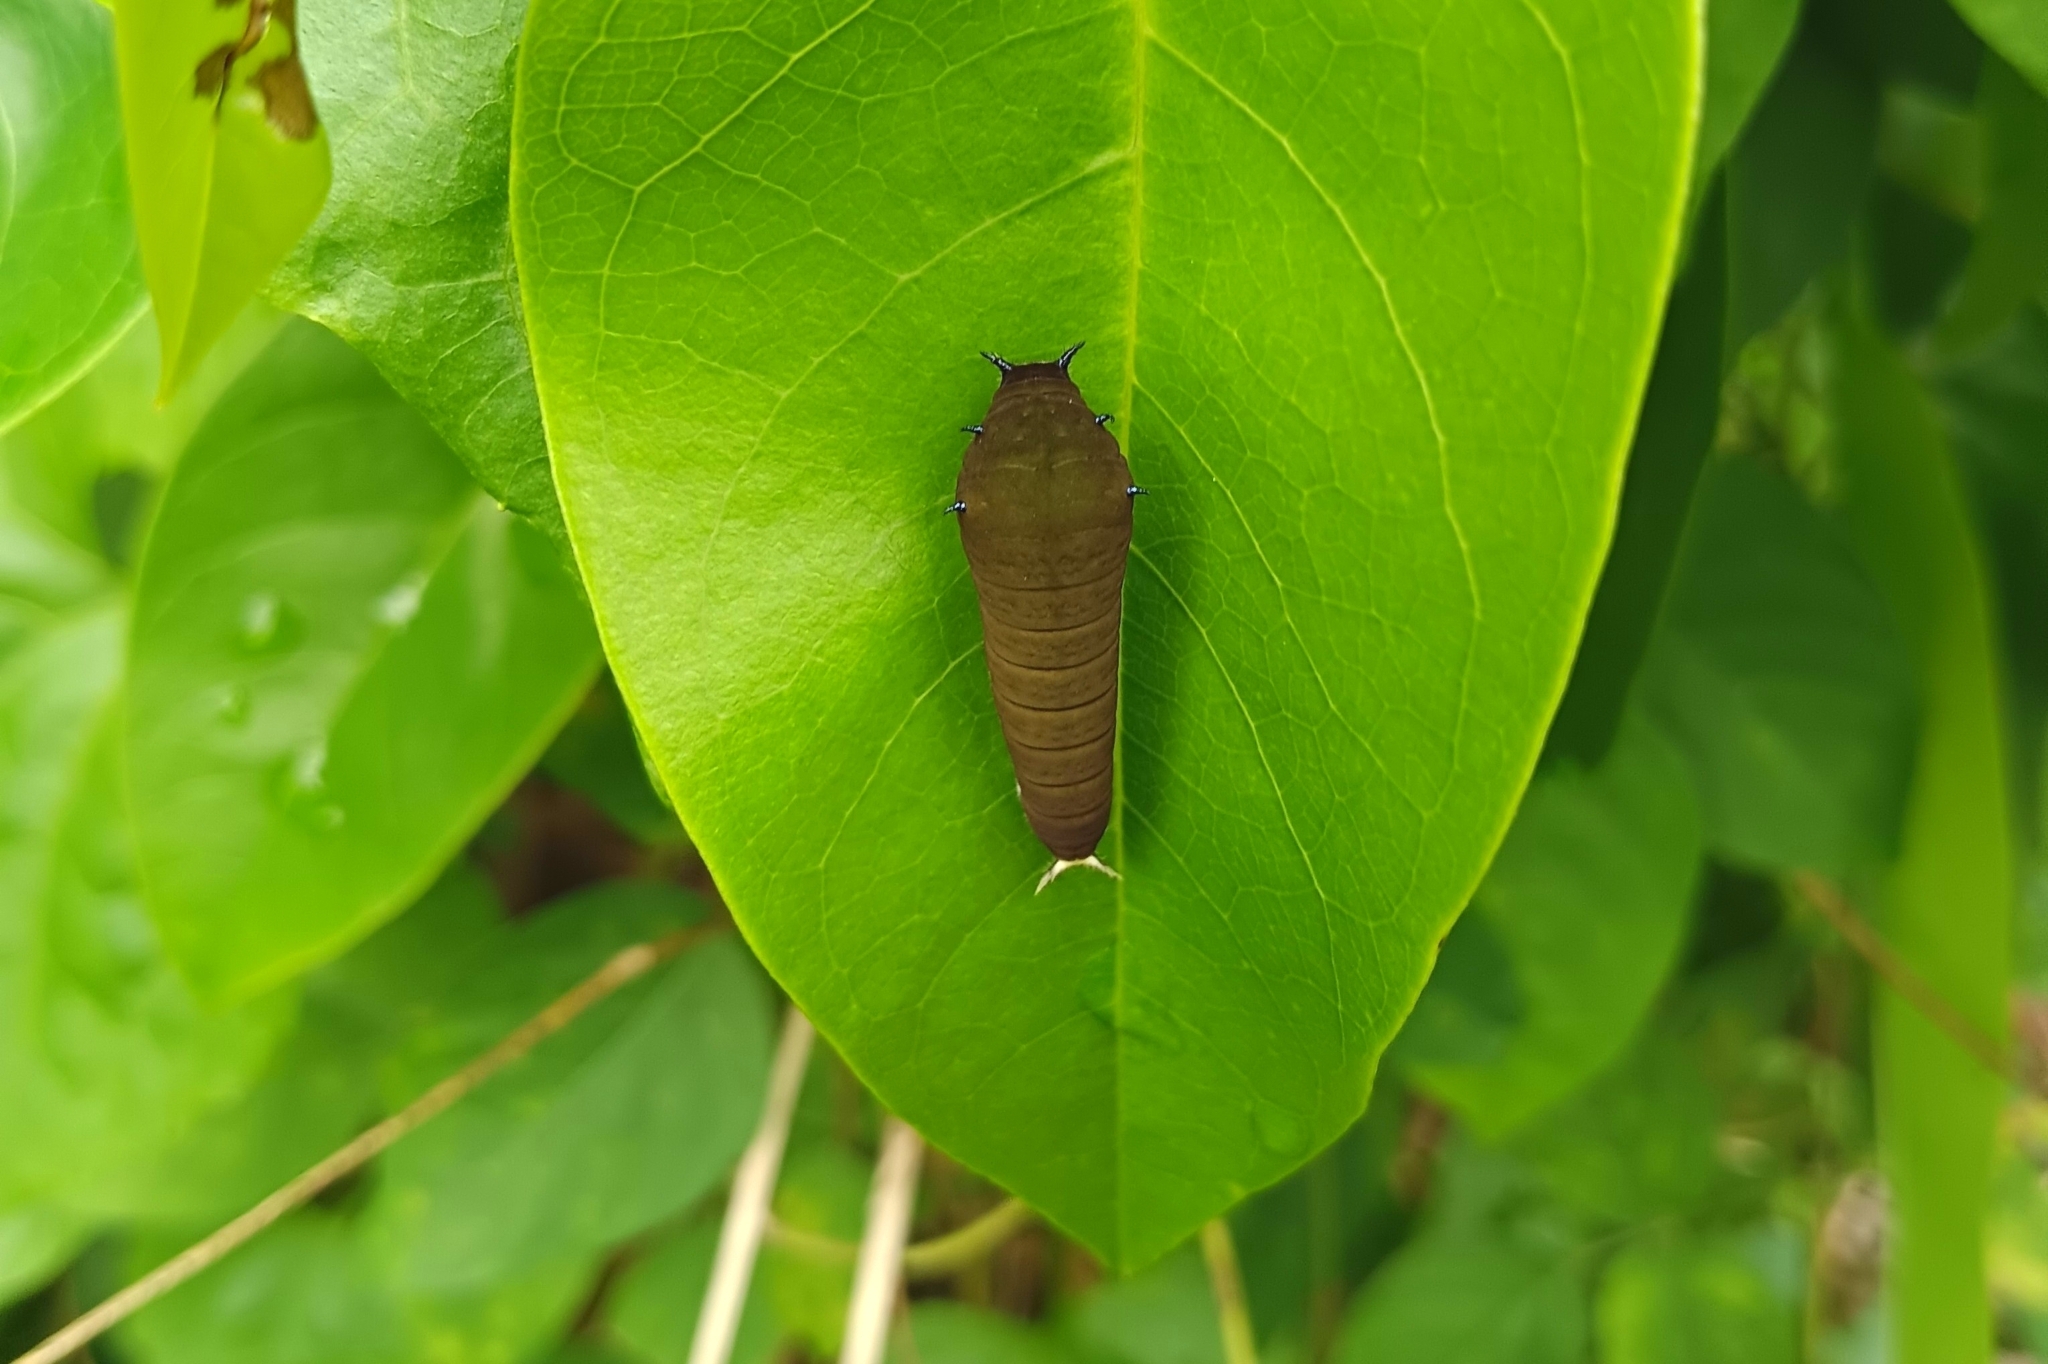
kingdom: Animalia
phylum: Arthropoda
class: Insecta
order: Lepidoptera
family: Papilionidae
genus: Graphium
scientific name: Graphium doson
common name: Common jay
